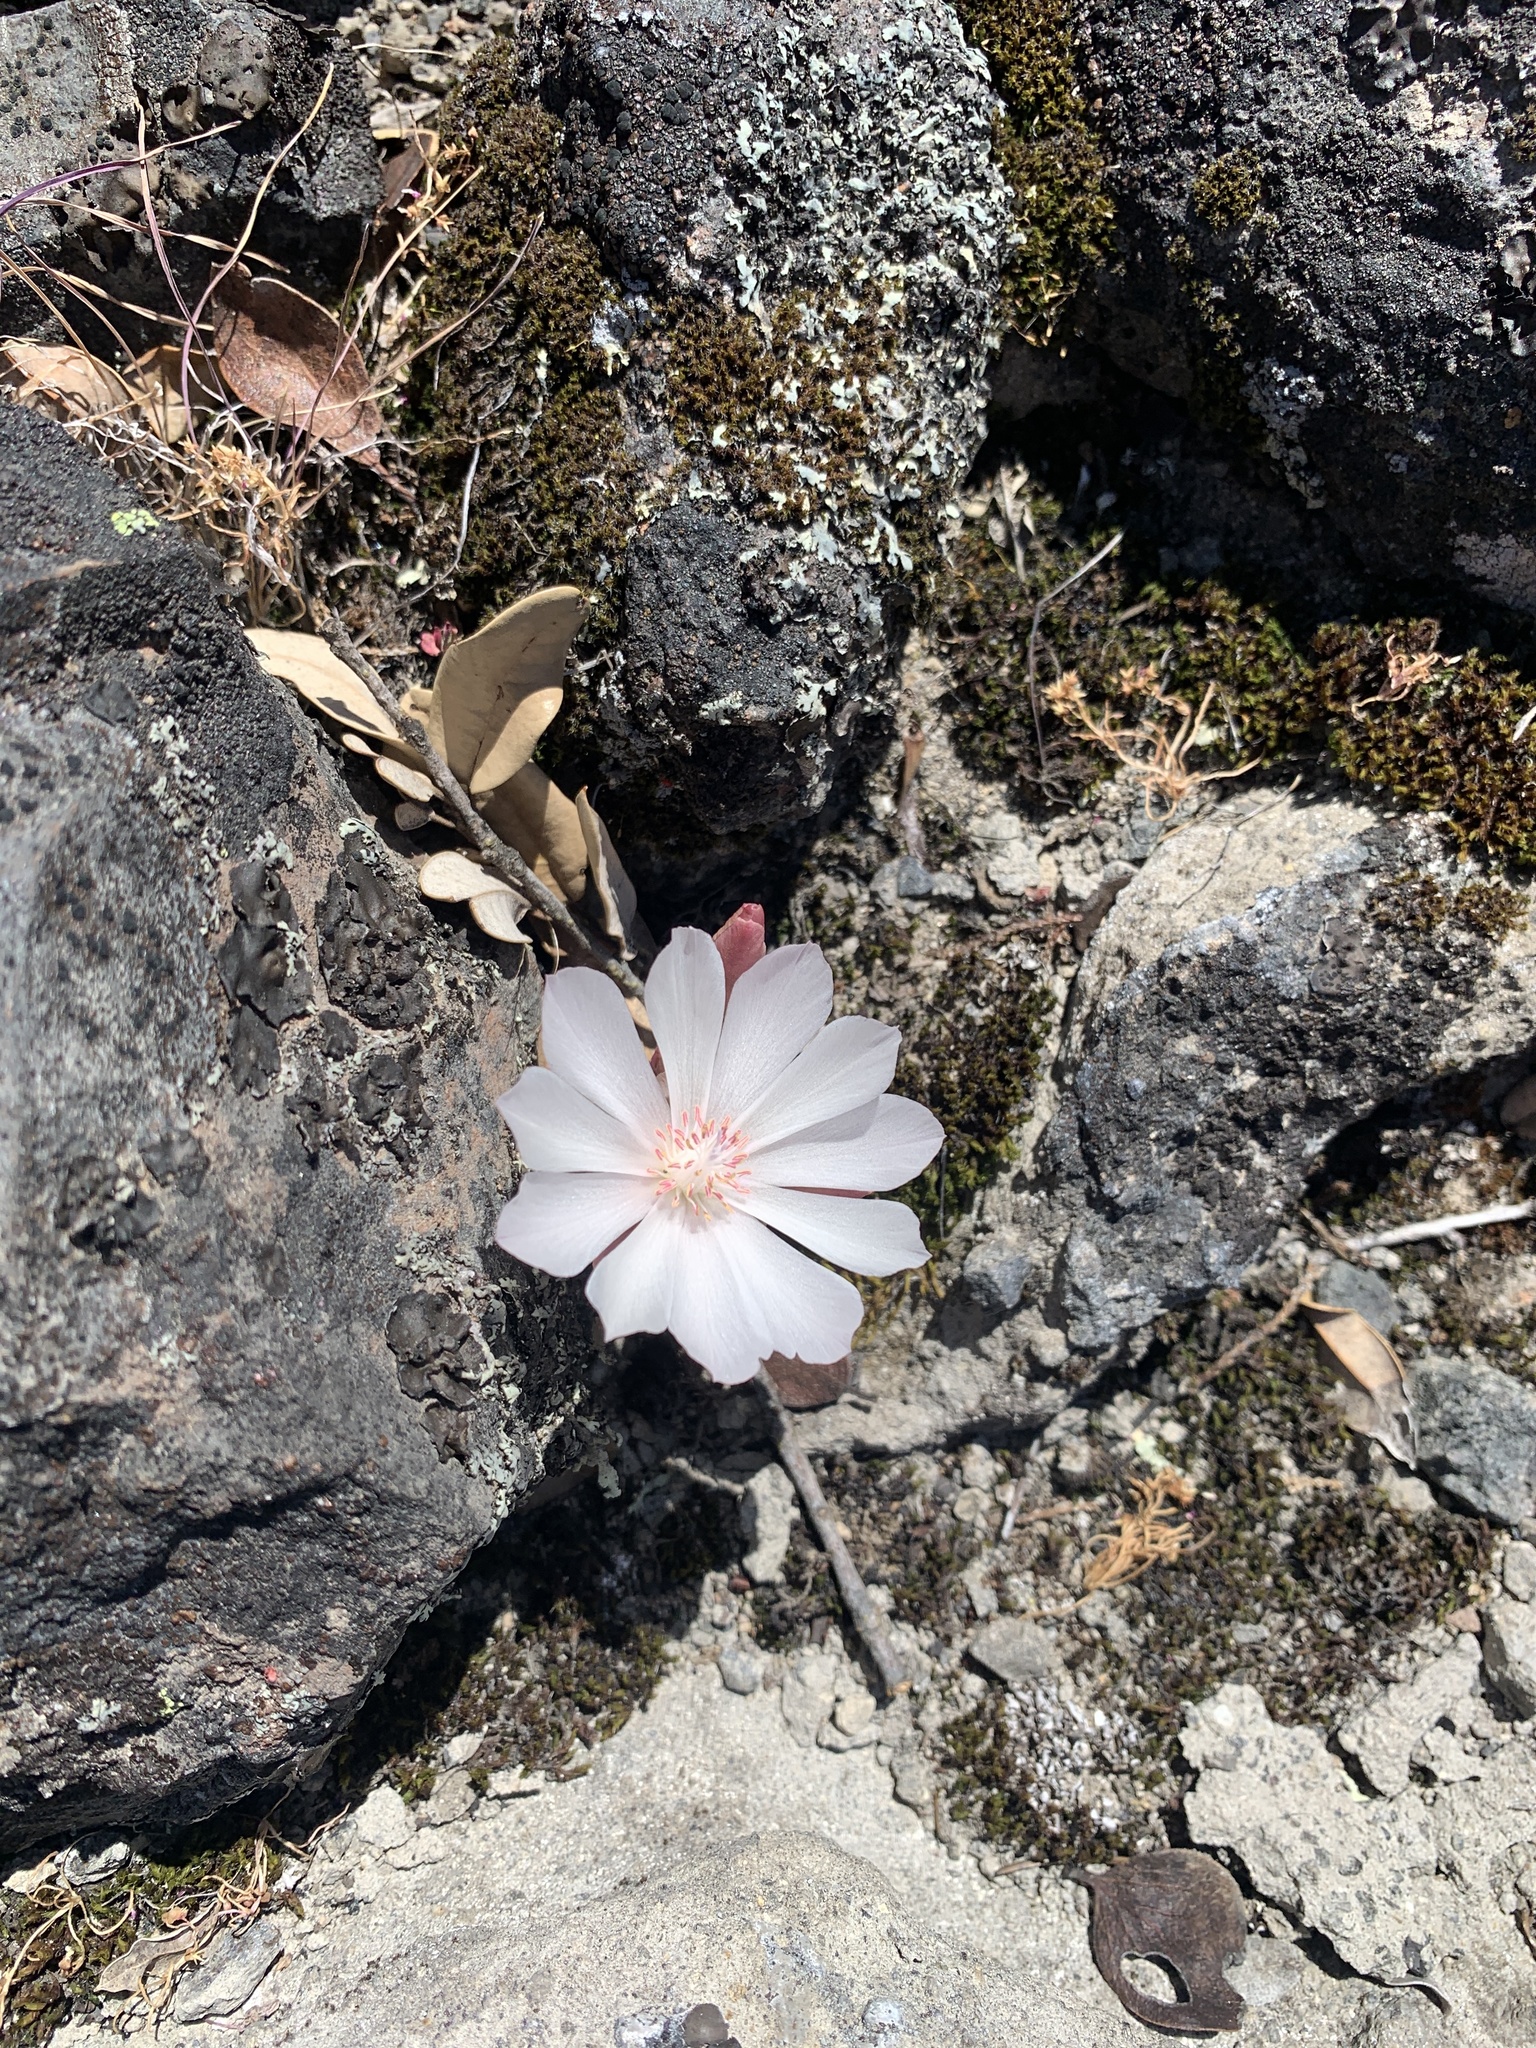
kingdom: Plantae
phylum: Tracheophyta
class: Magnoliopsida
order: Caryophyllales
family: Montiaceae
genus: Lewisia
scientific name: Lewisia rediviva
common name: Bitter-root
